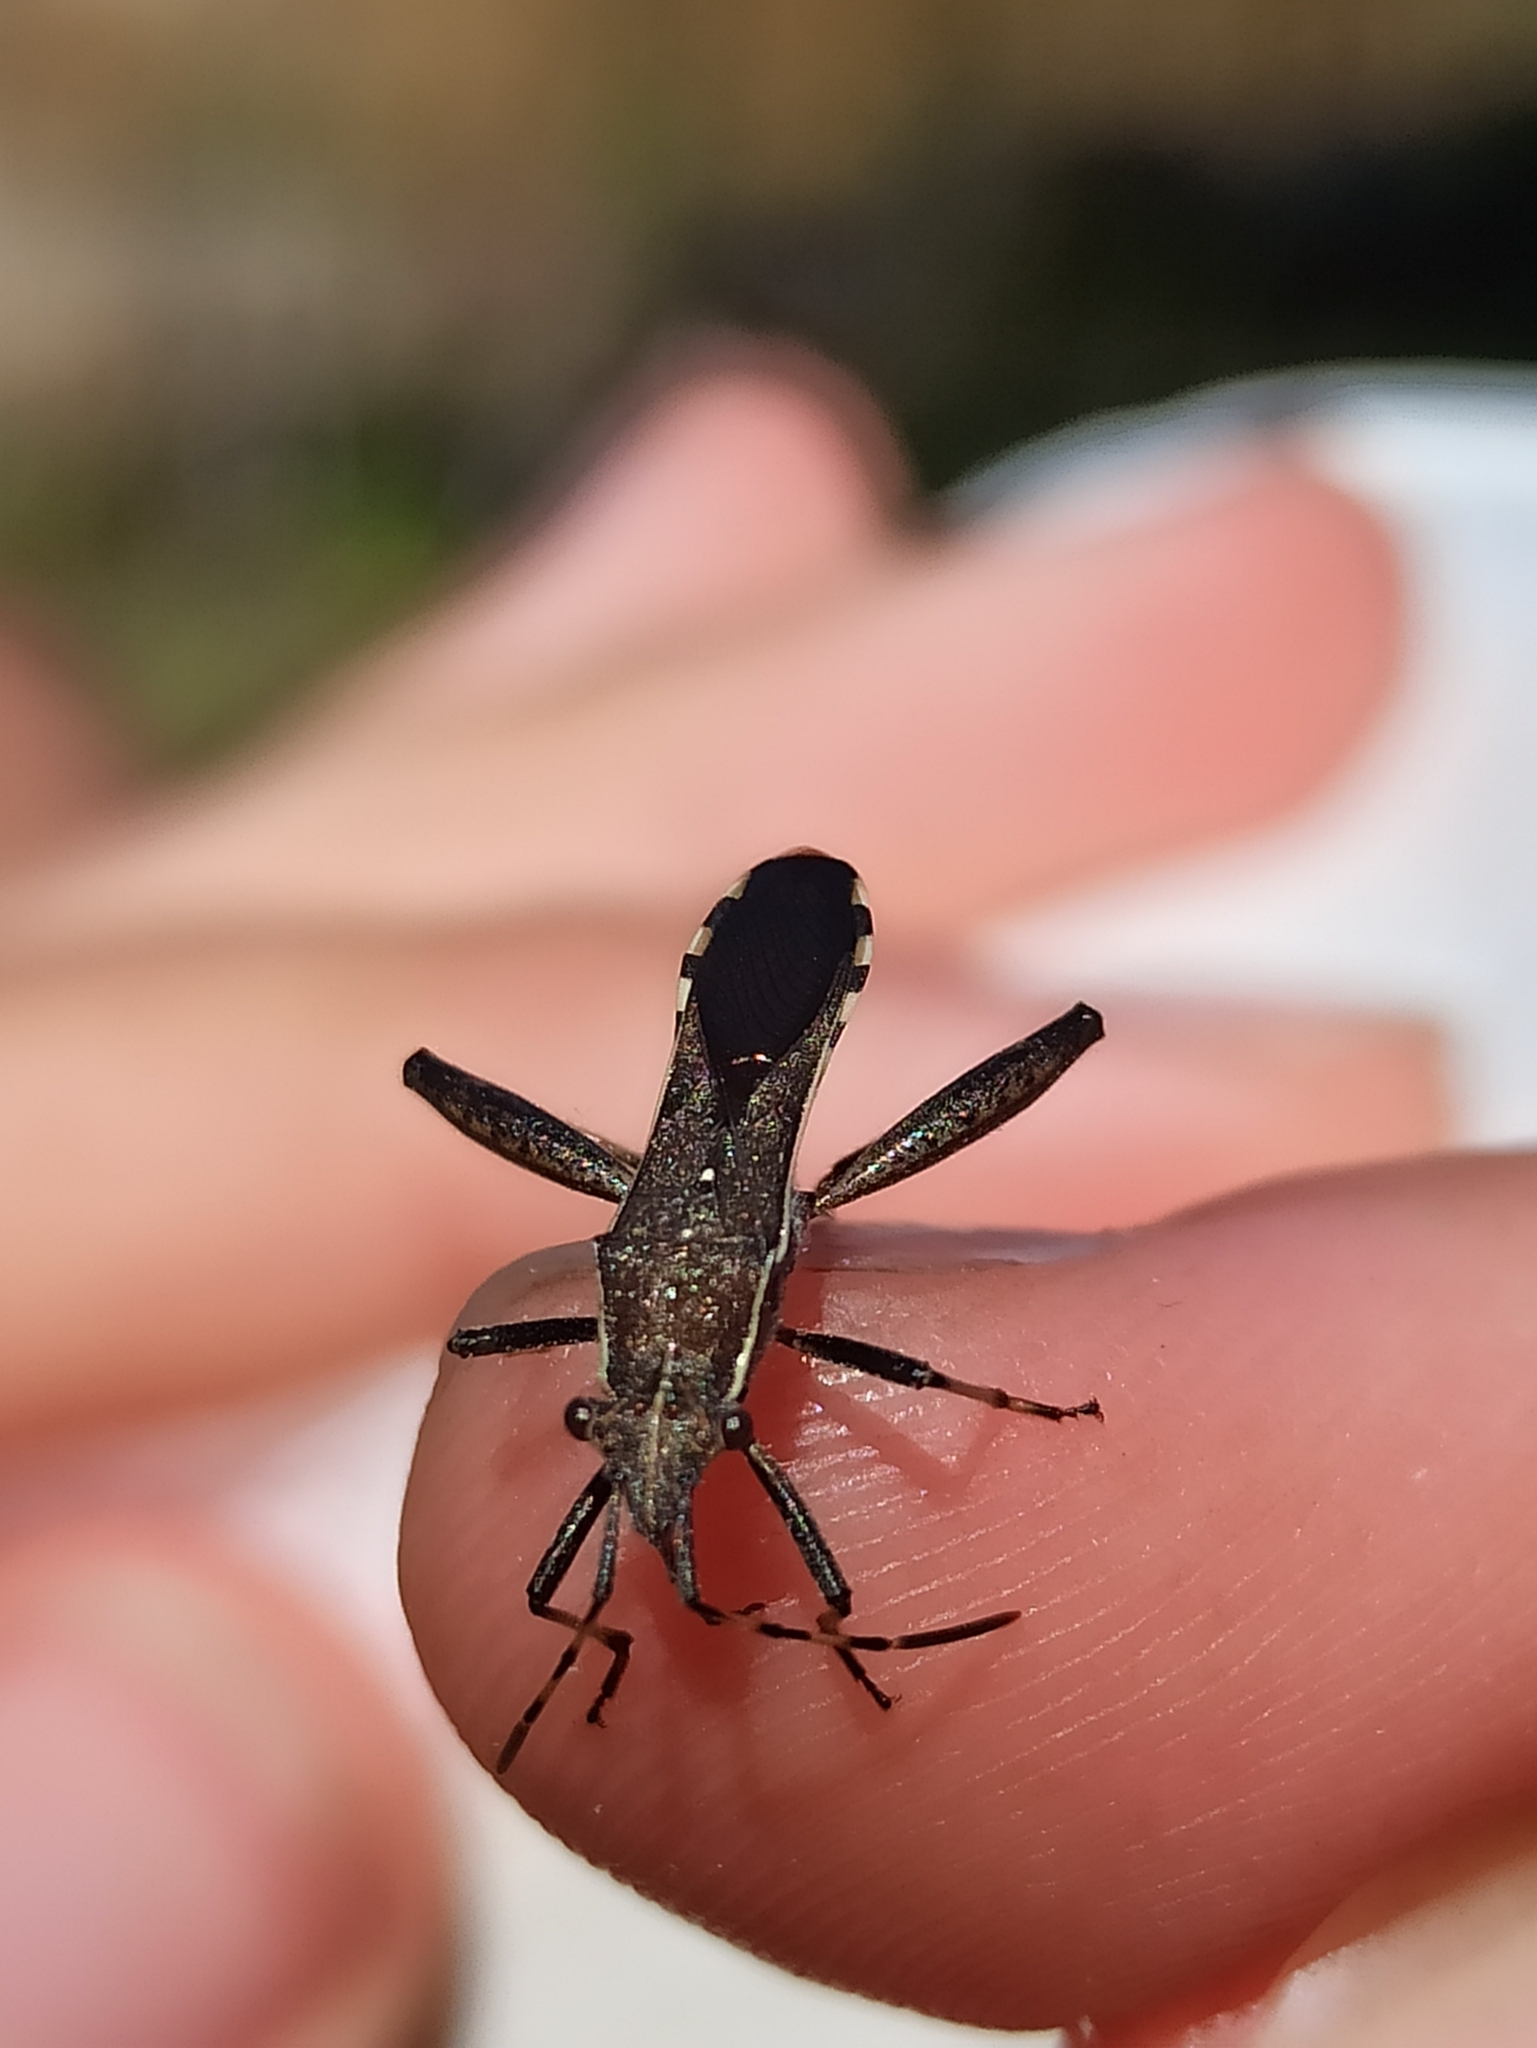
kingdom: Animalia
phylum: Arthropoda
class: Insecta
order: Hemiptera
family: Alydidae
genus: Camptopus
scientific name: Camptopus lateralis
